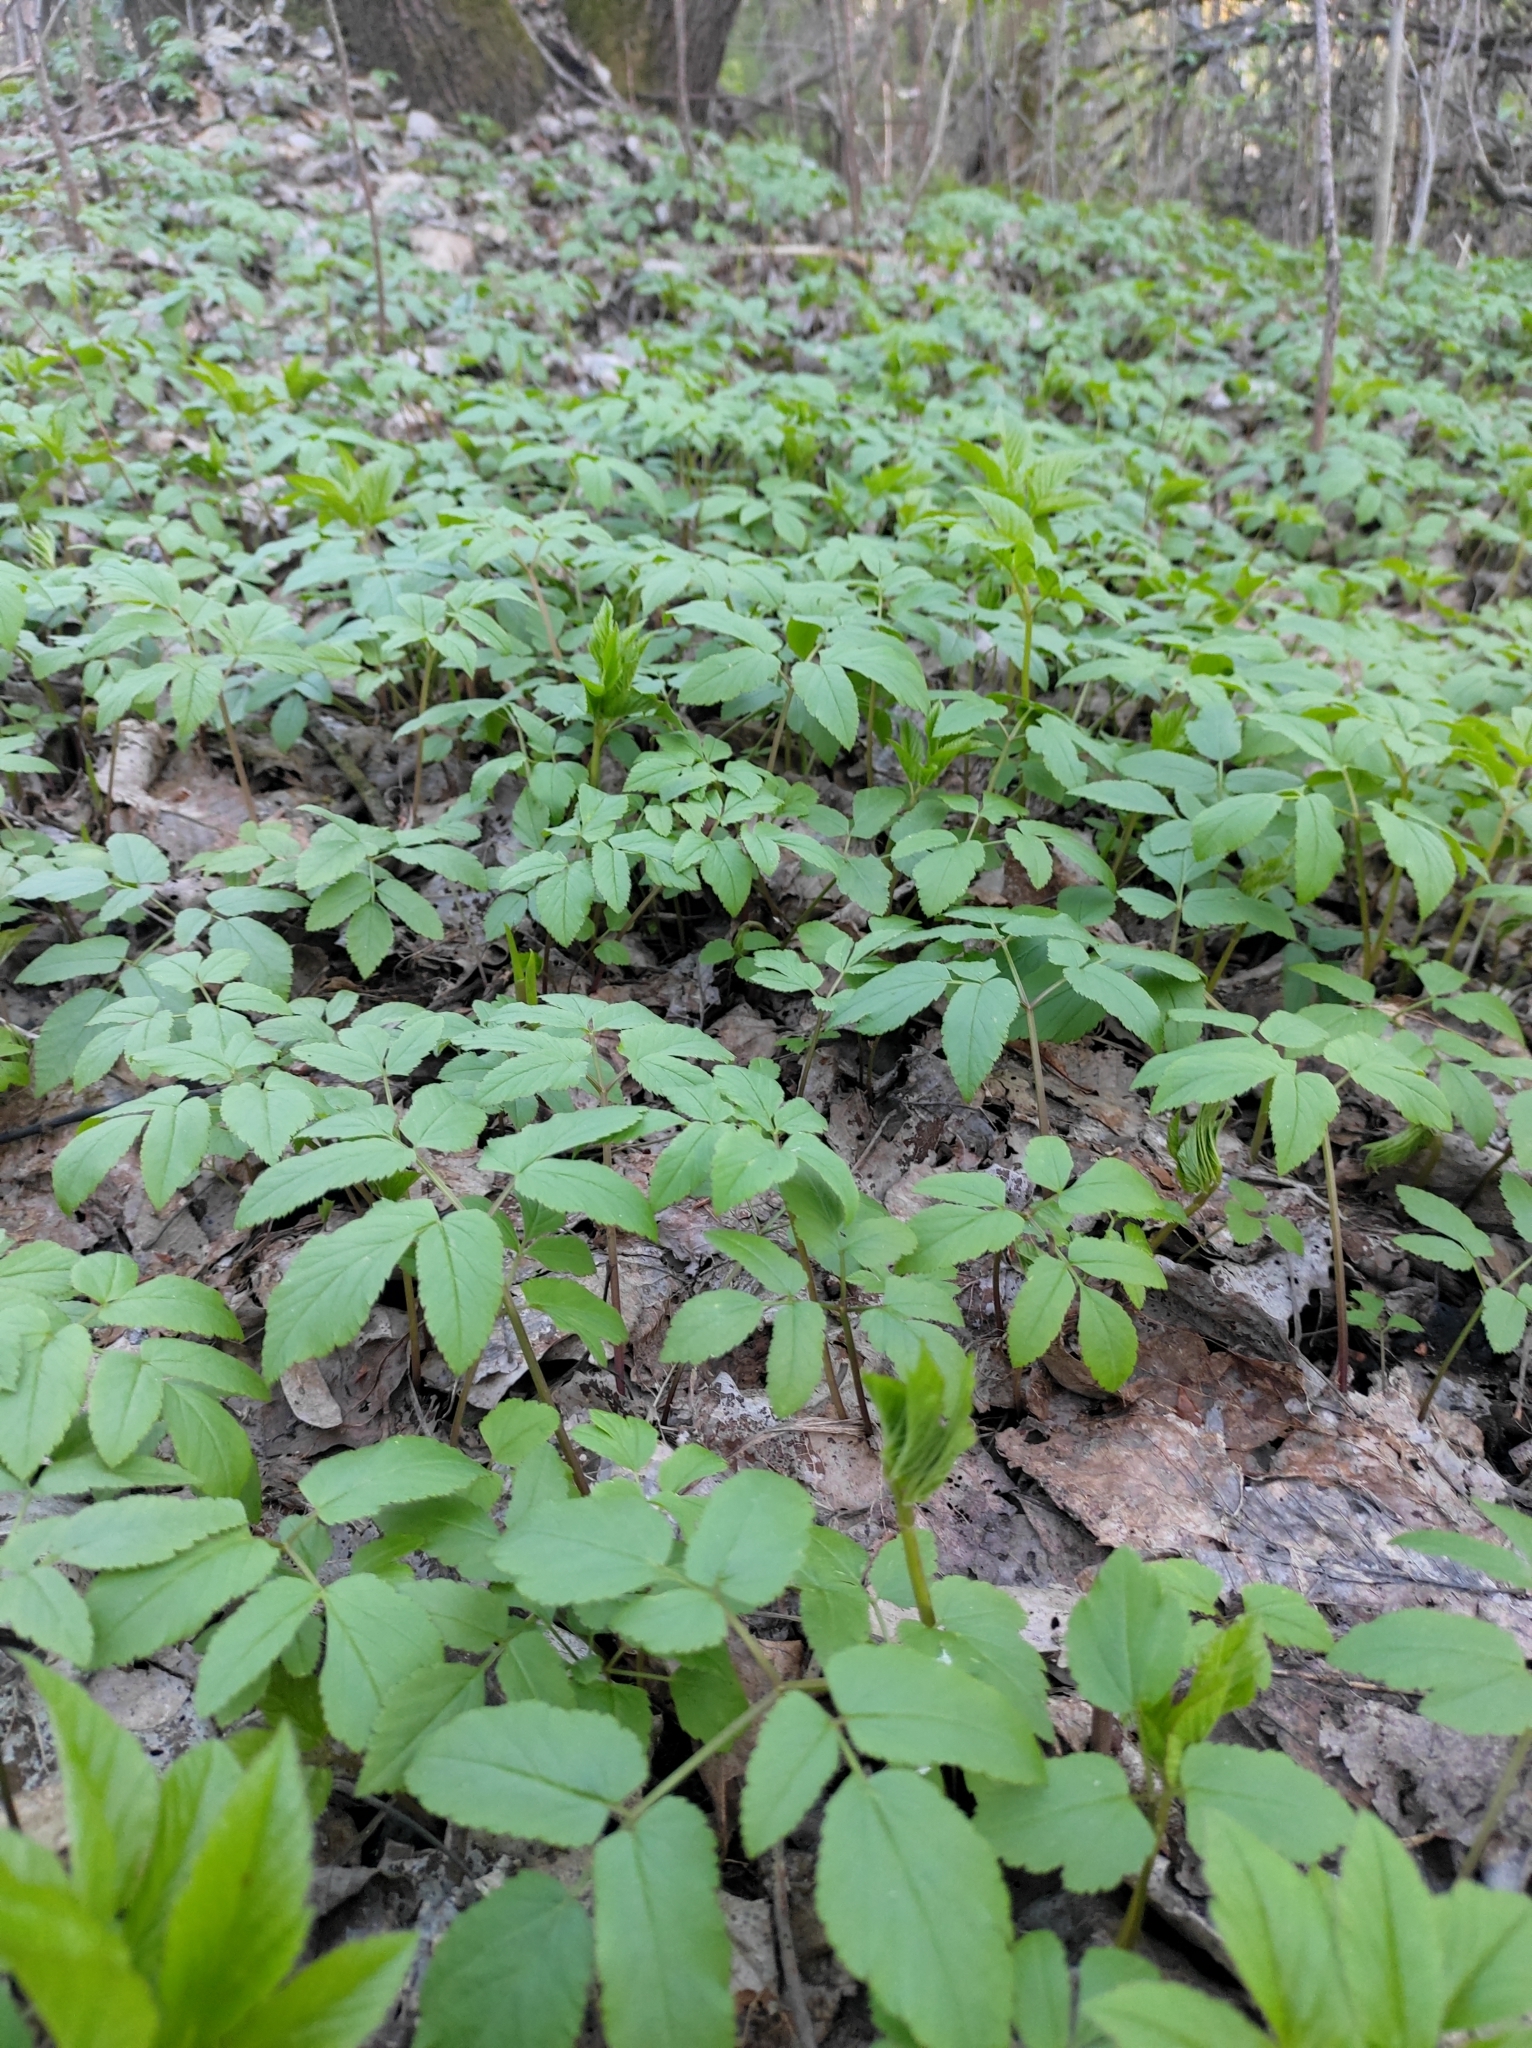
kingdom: Plantae
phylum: Tracheophyta
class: Magnoliopsida
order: Apiales
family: Apiaceae
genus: Aegopodium
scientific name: Aegopodium podagraria
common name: Ground-elder
